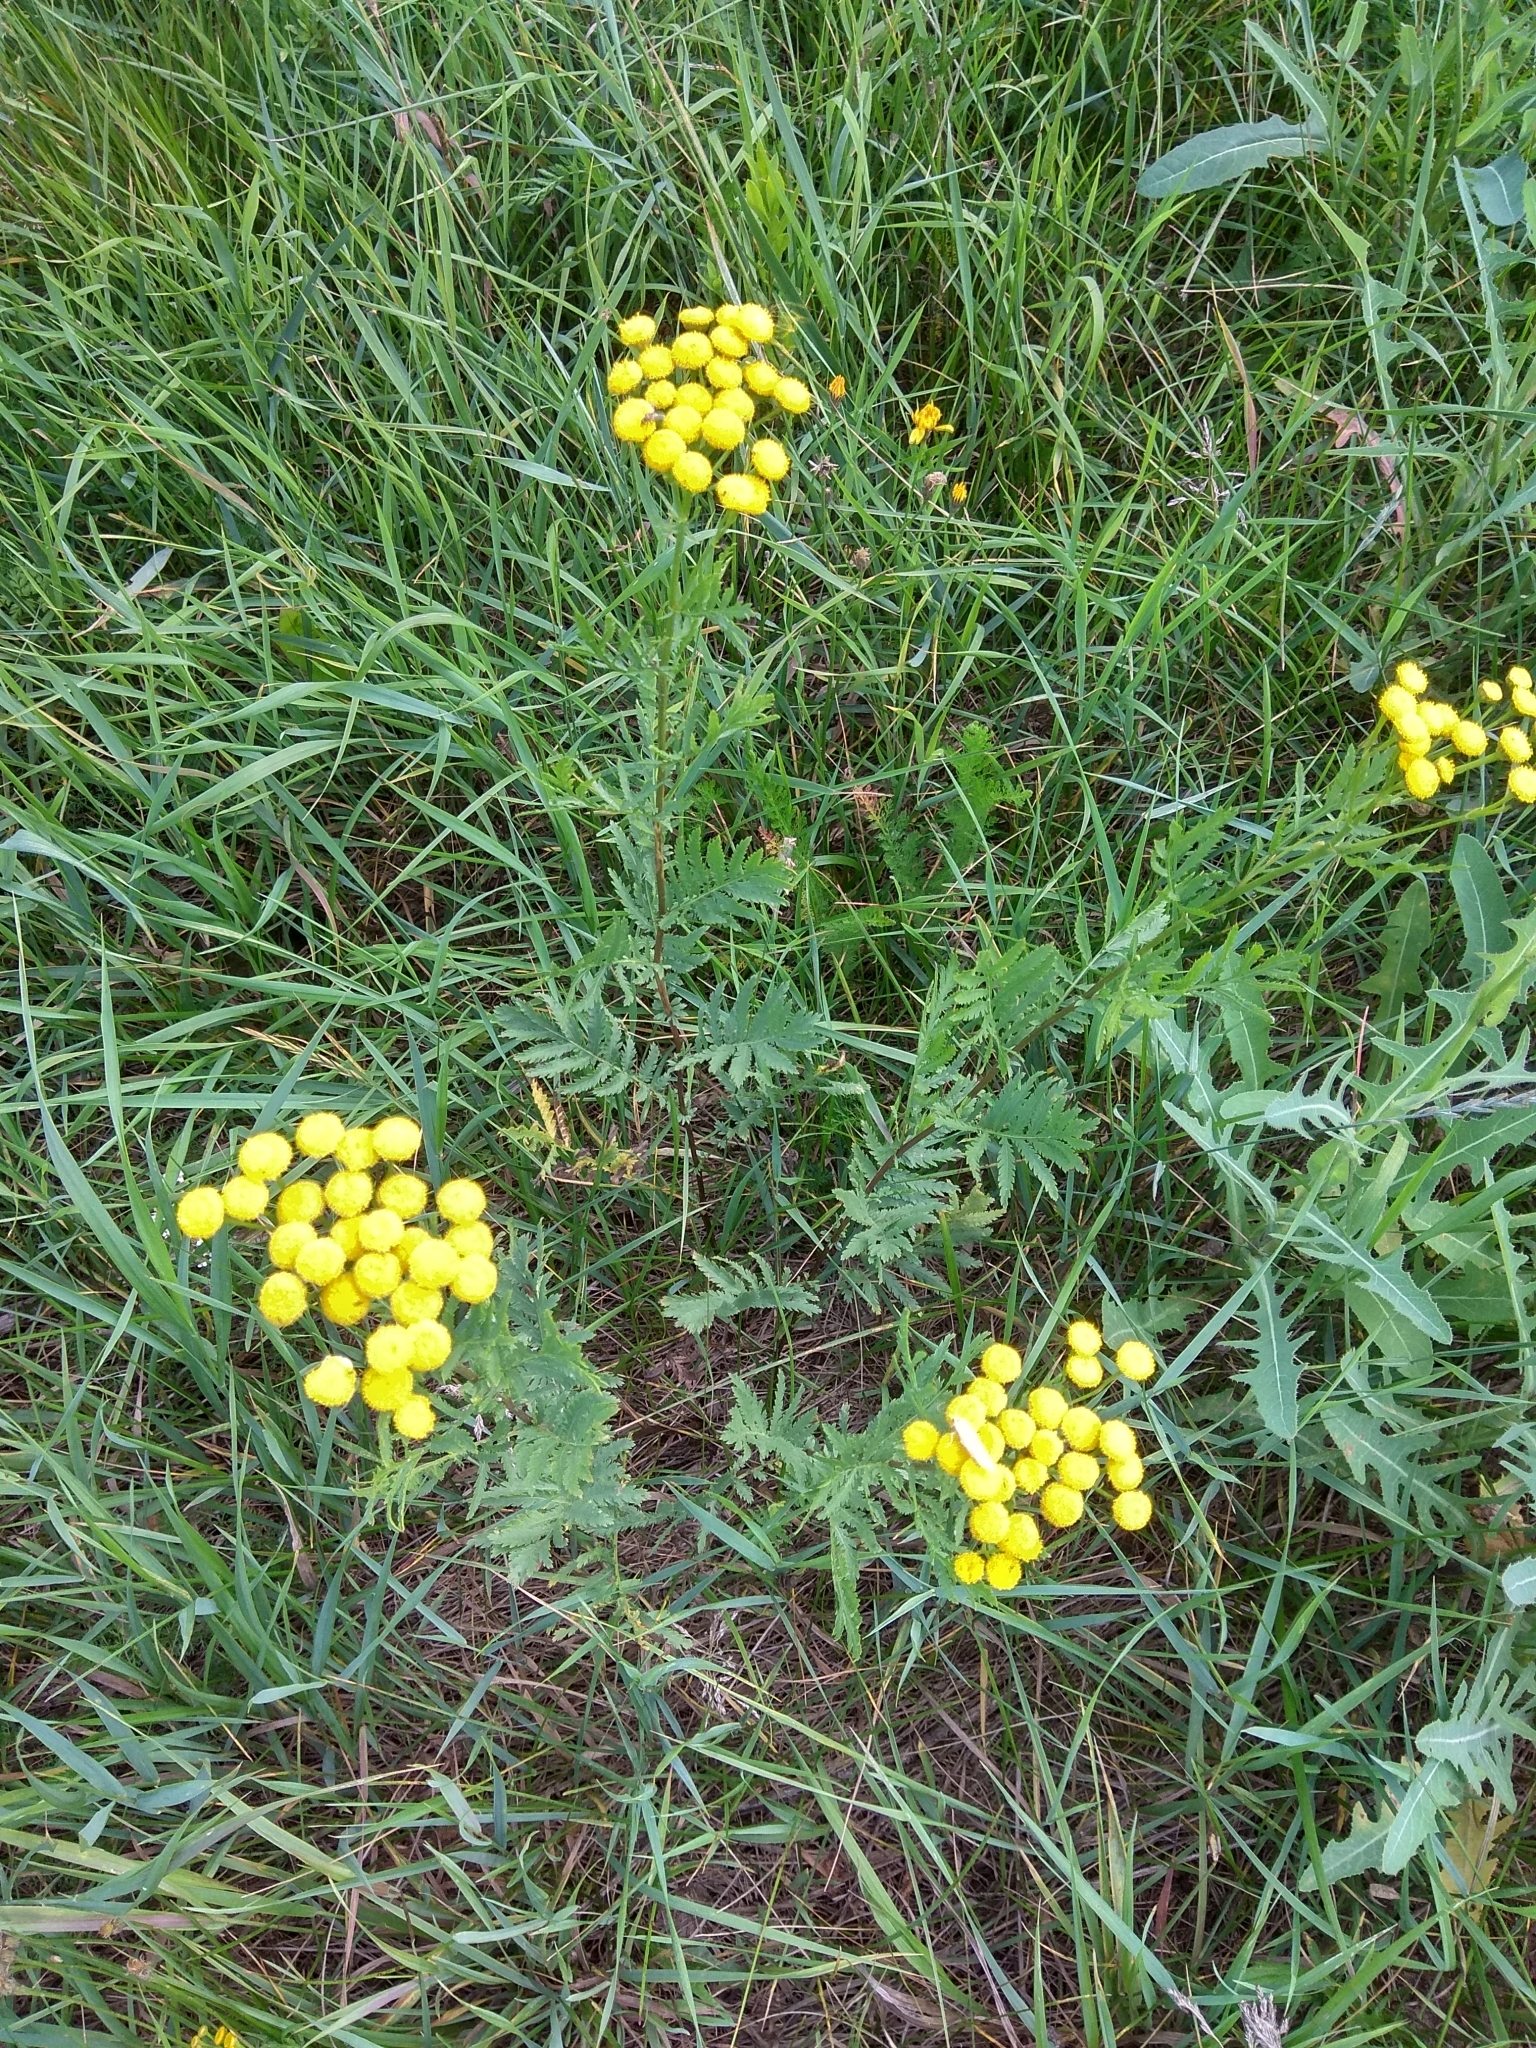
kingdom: Plantae
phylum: Tracheophyta
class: Magnoliopsida
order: Asterales
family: Asteraceae
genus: Tanacetum
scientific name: Tanacetum vulgare
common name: Common tansy
